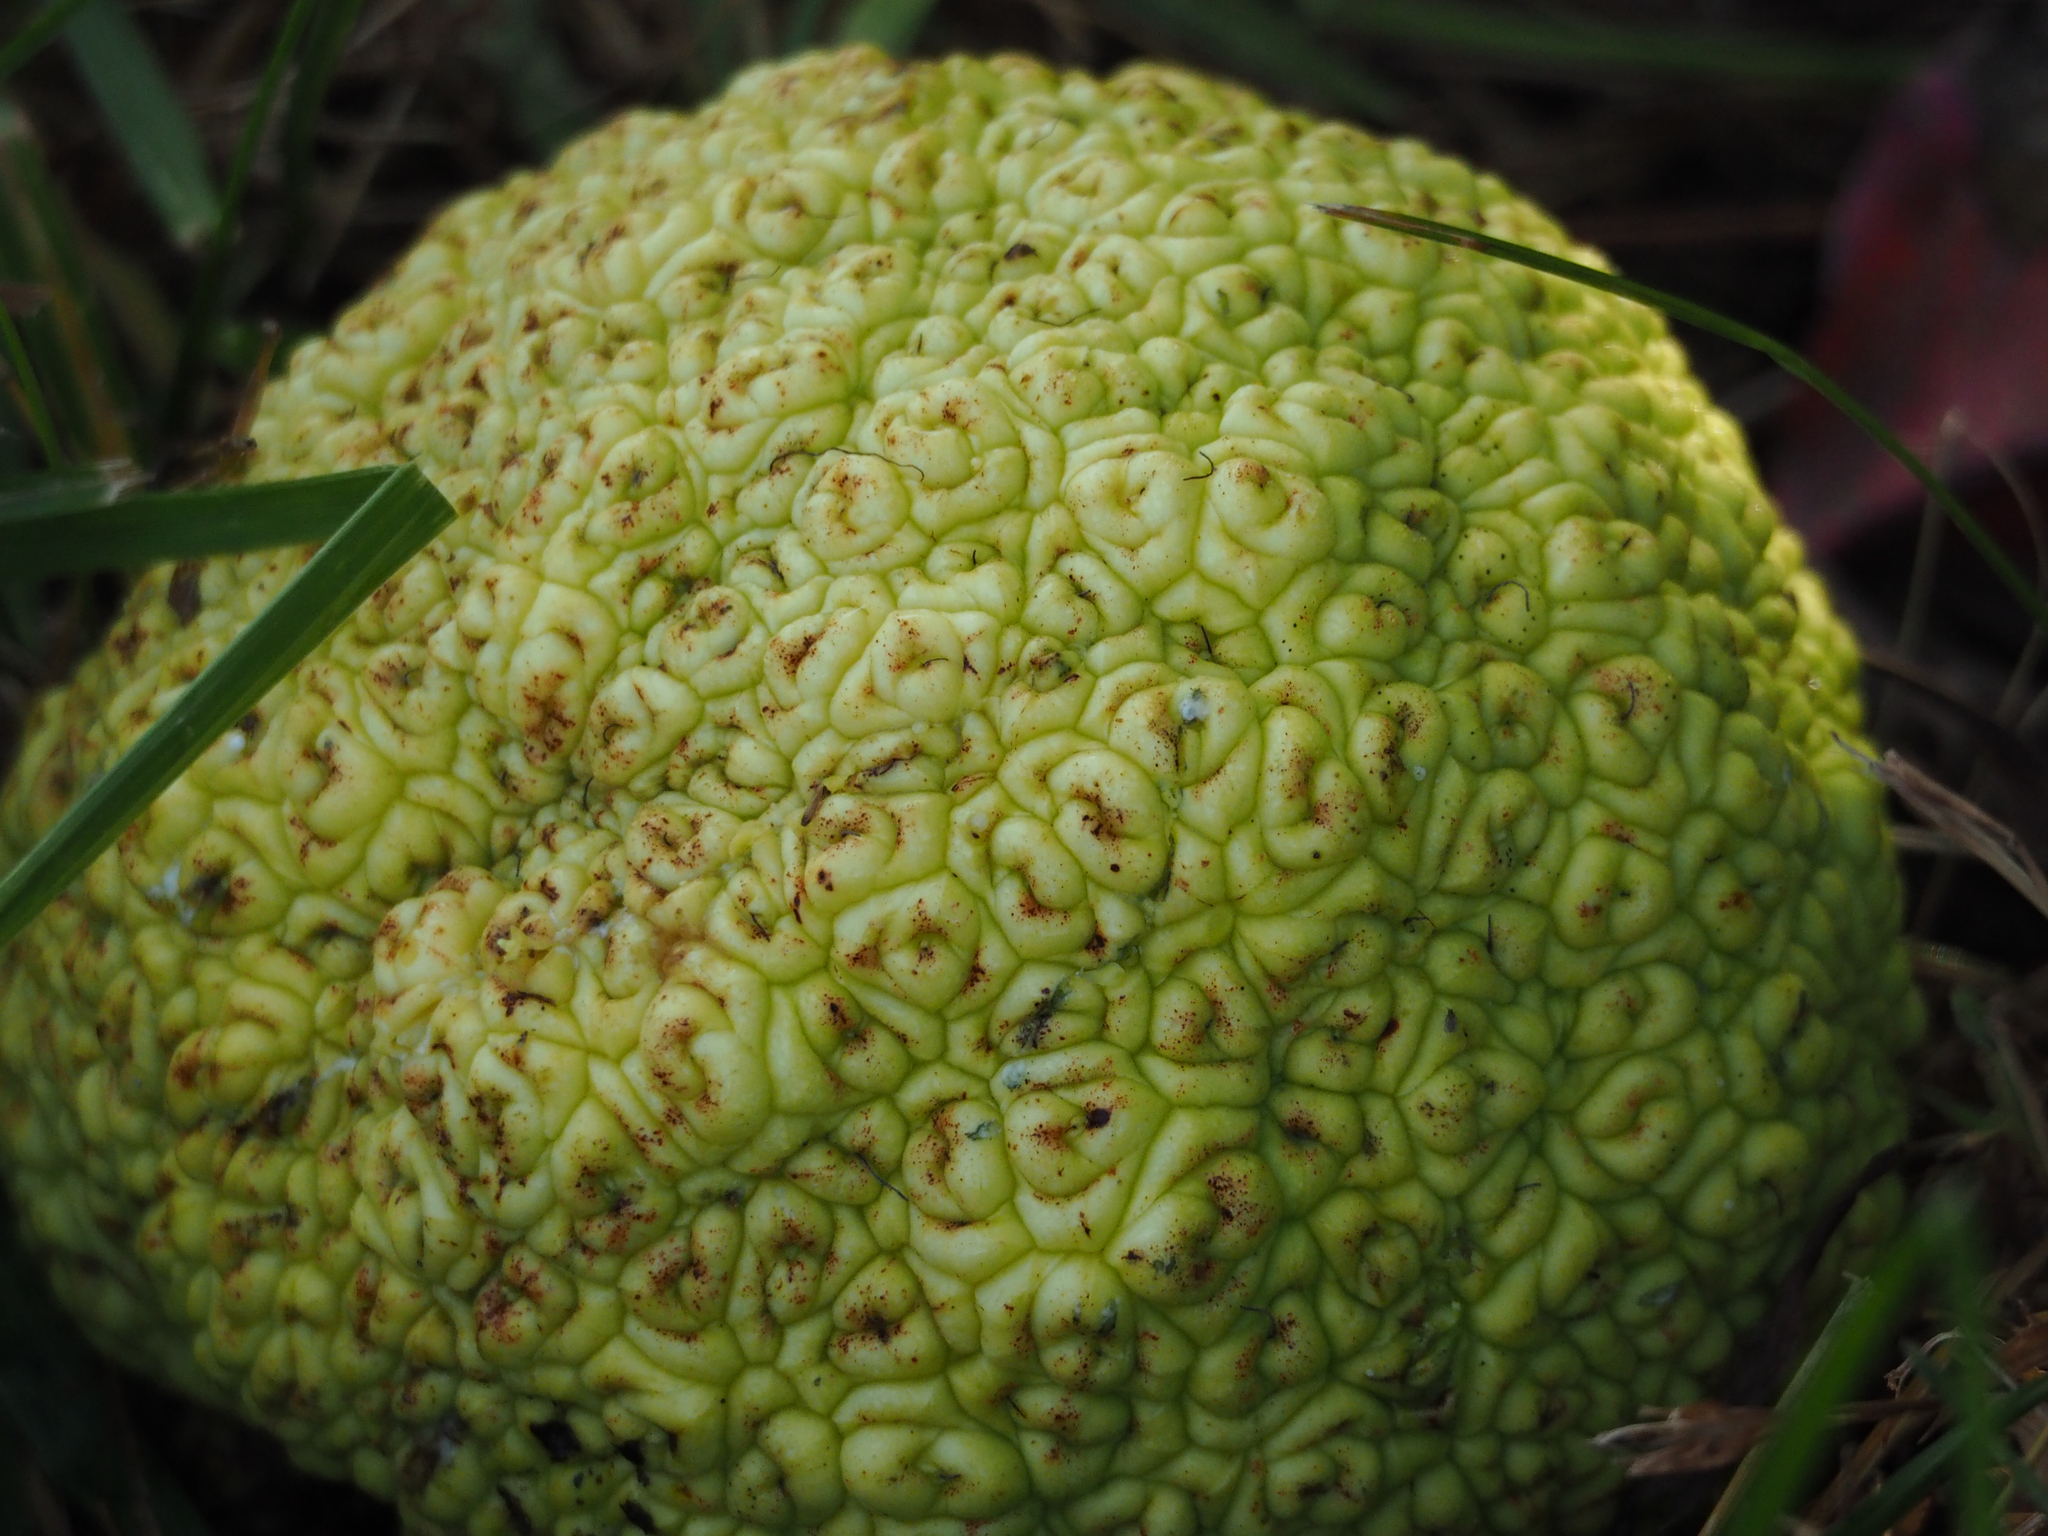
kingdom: Plantae
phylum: Tracheophyta
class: Magnoliopsida
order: Rosales
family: Moraceae
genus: Maclura
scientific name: Maclura pomifera
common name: Osage-orange
